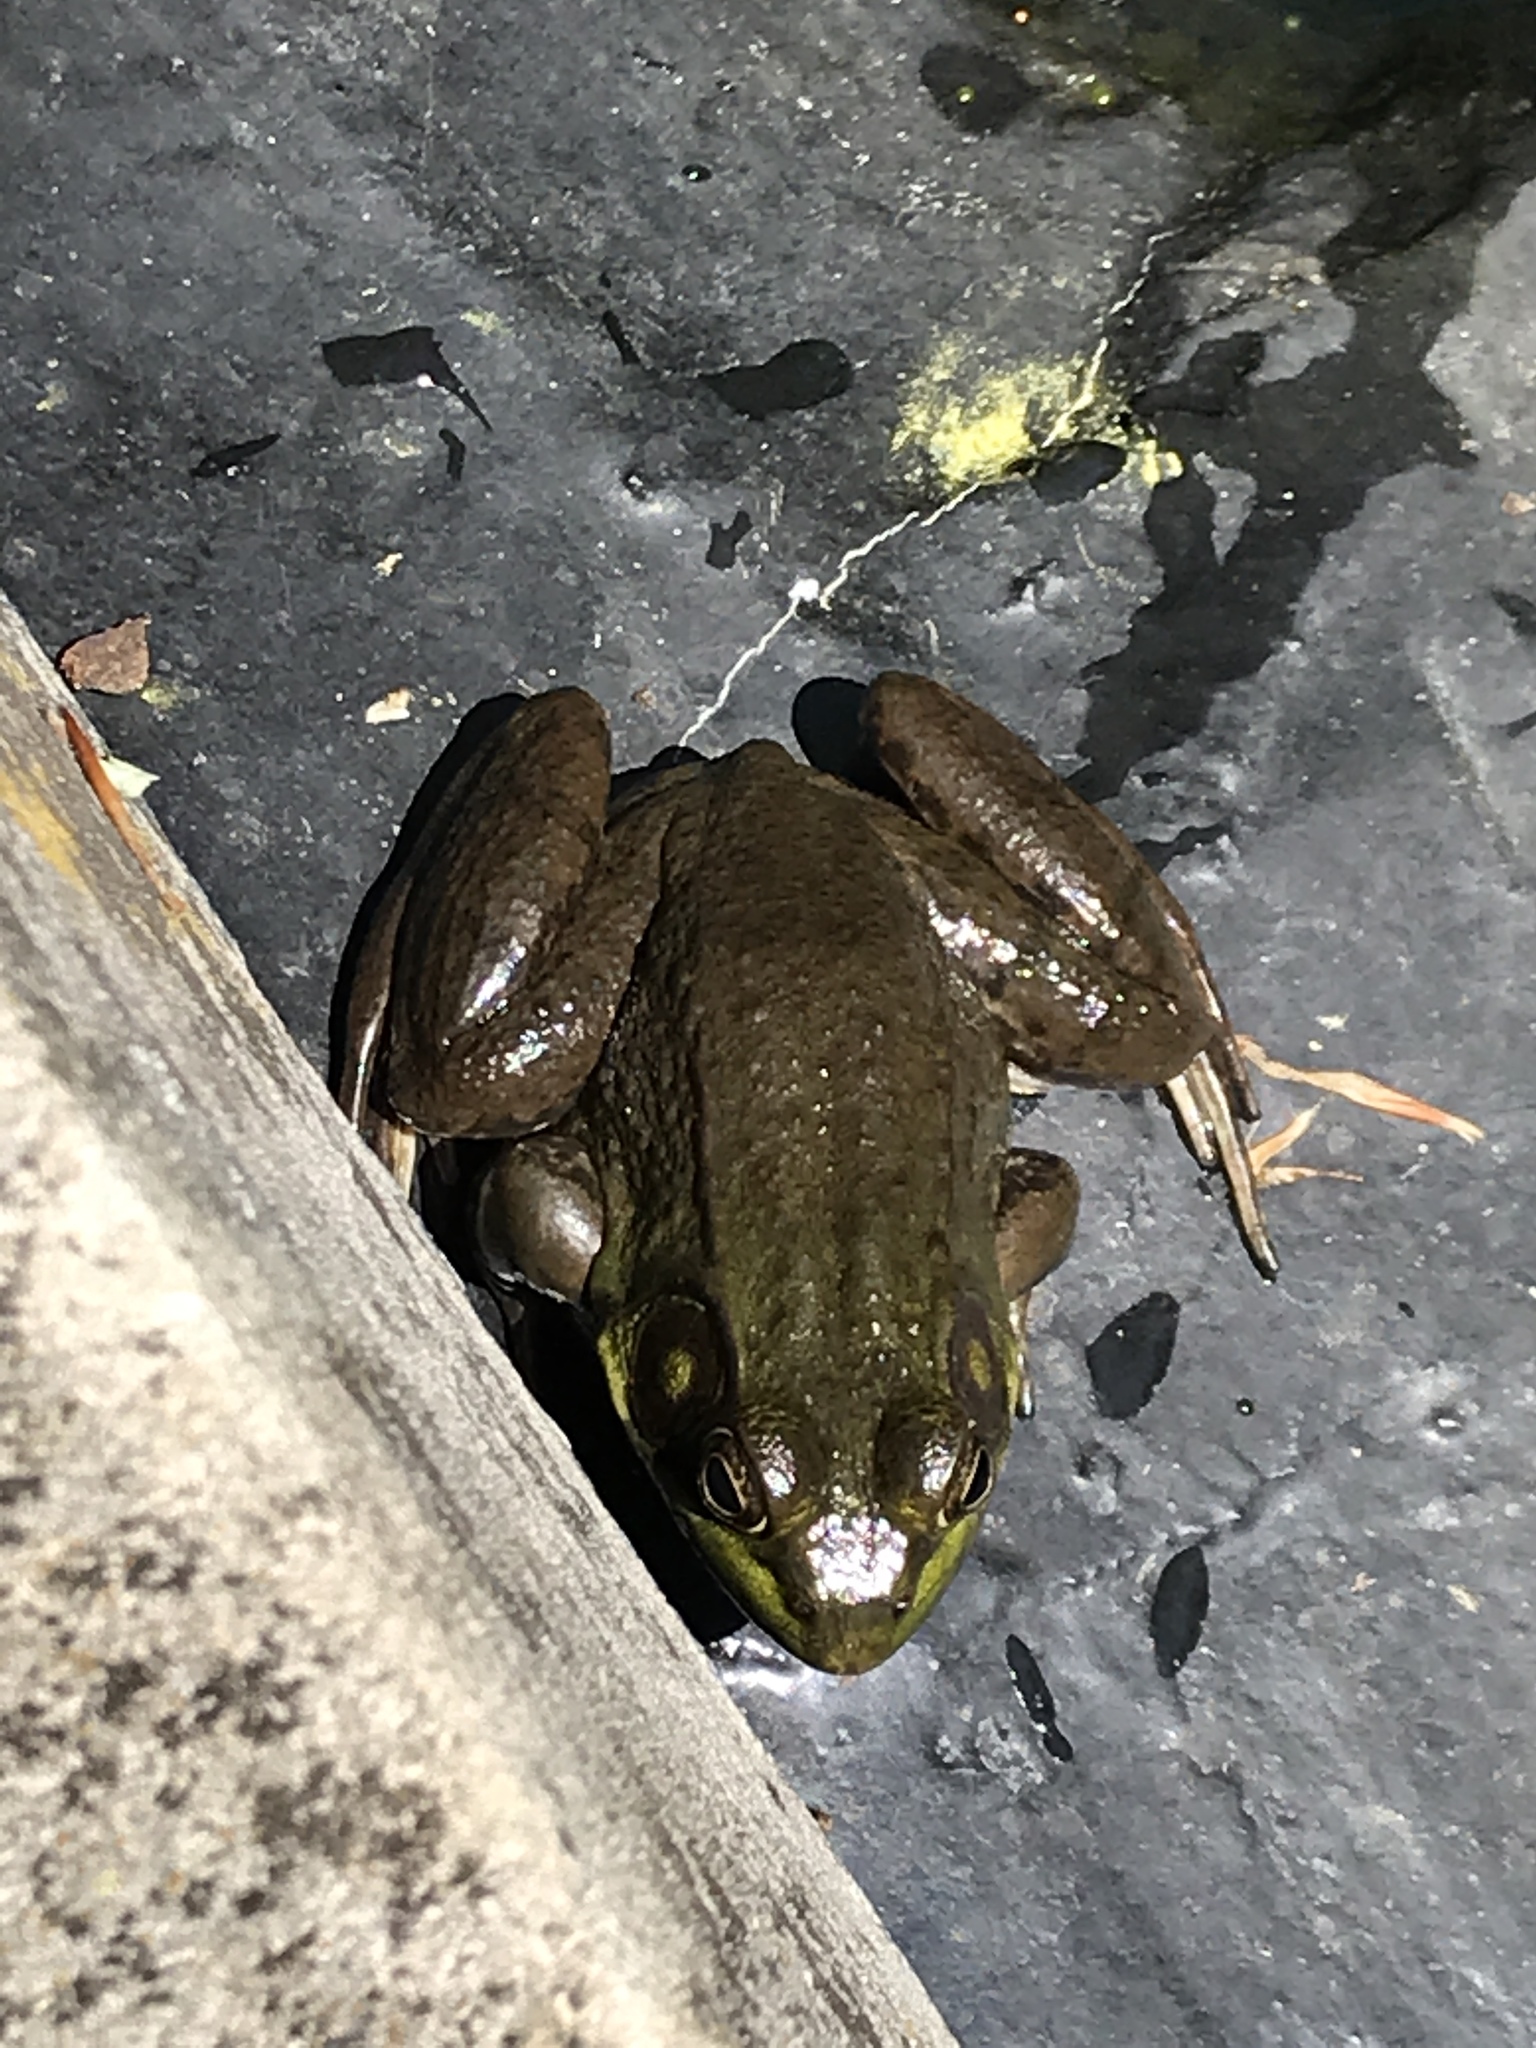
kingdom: Animalia
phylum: Chordata
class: Amphibia
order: Anura
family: Ranidae
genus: Lithobates
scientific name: Lithobates clamitans
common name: Green frog
